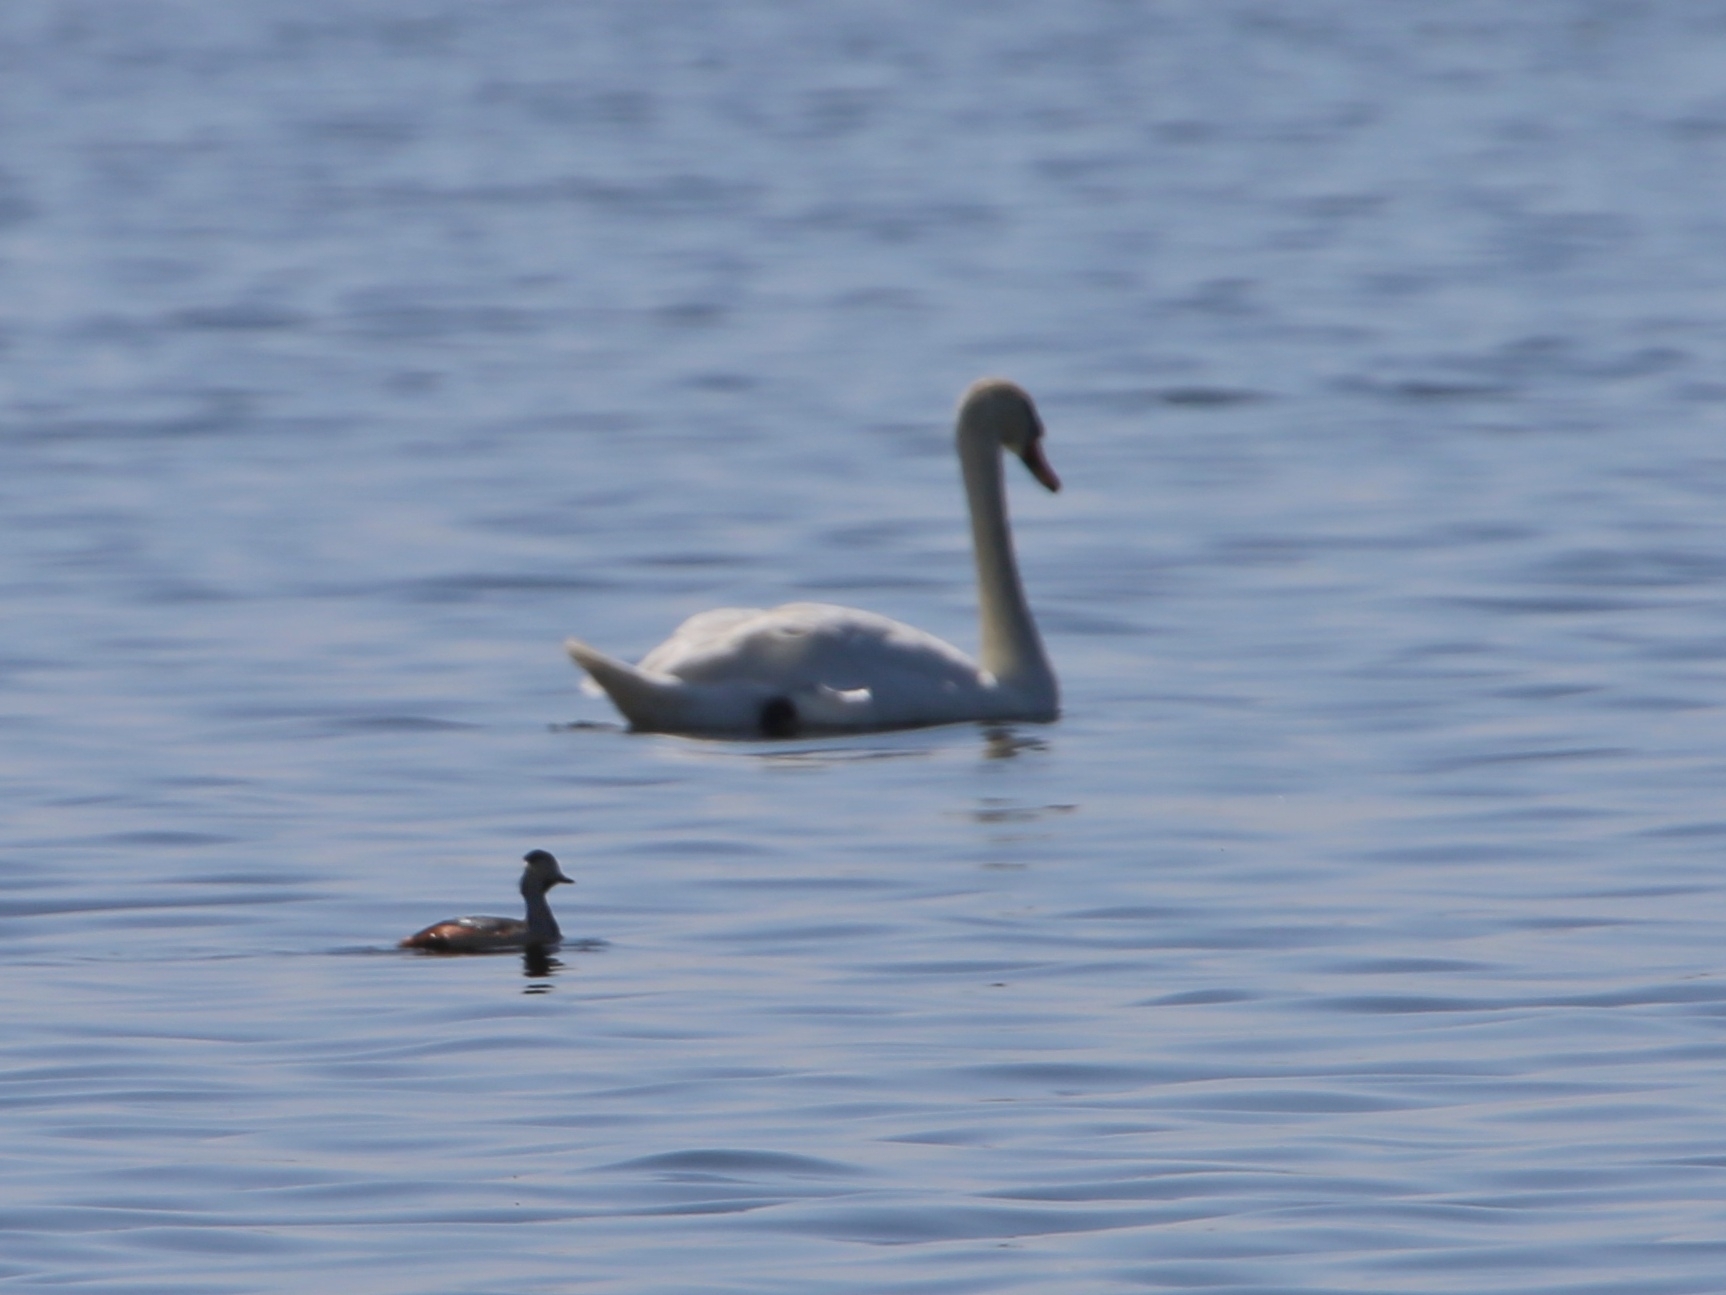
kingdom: Animalia
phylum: Chordata
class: Aves
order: Podicipediformes
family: Podicipedidae
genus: Podiceps
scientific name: Podiceps nigricollis
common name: Black-necked grebe
